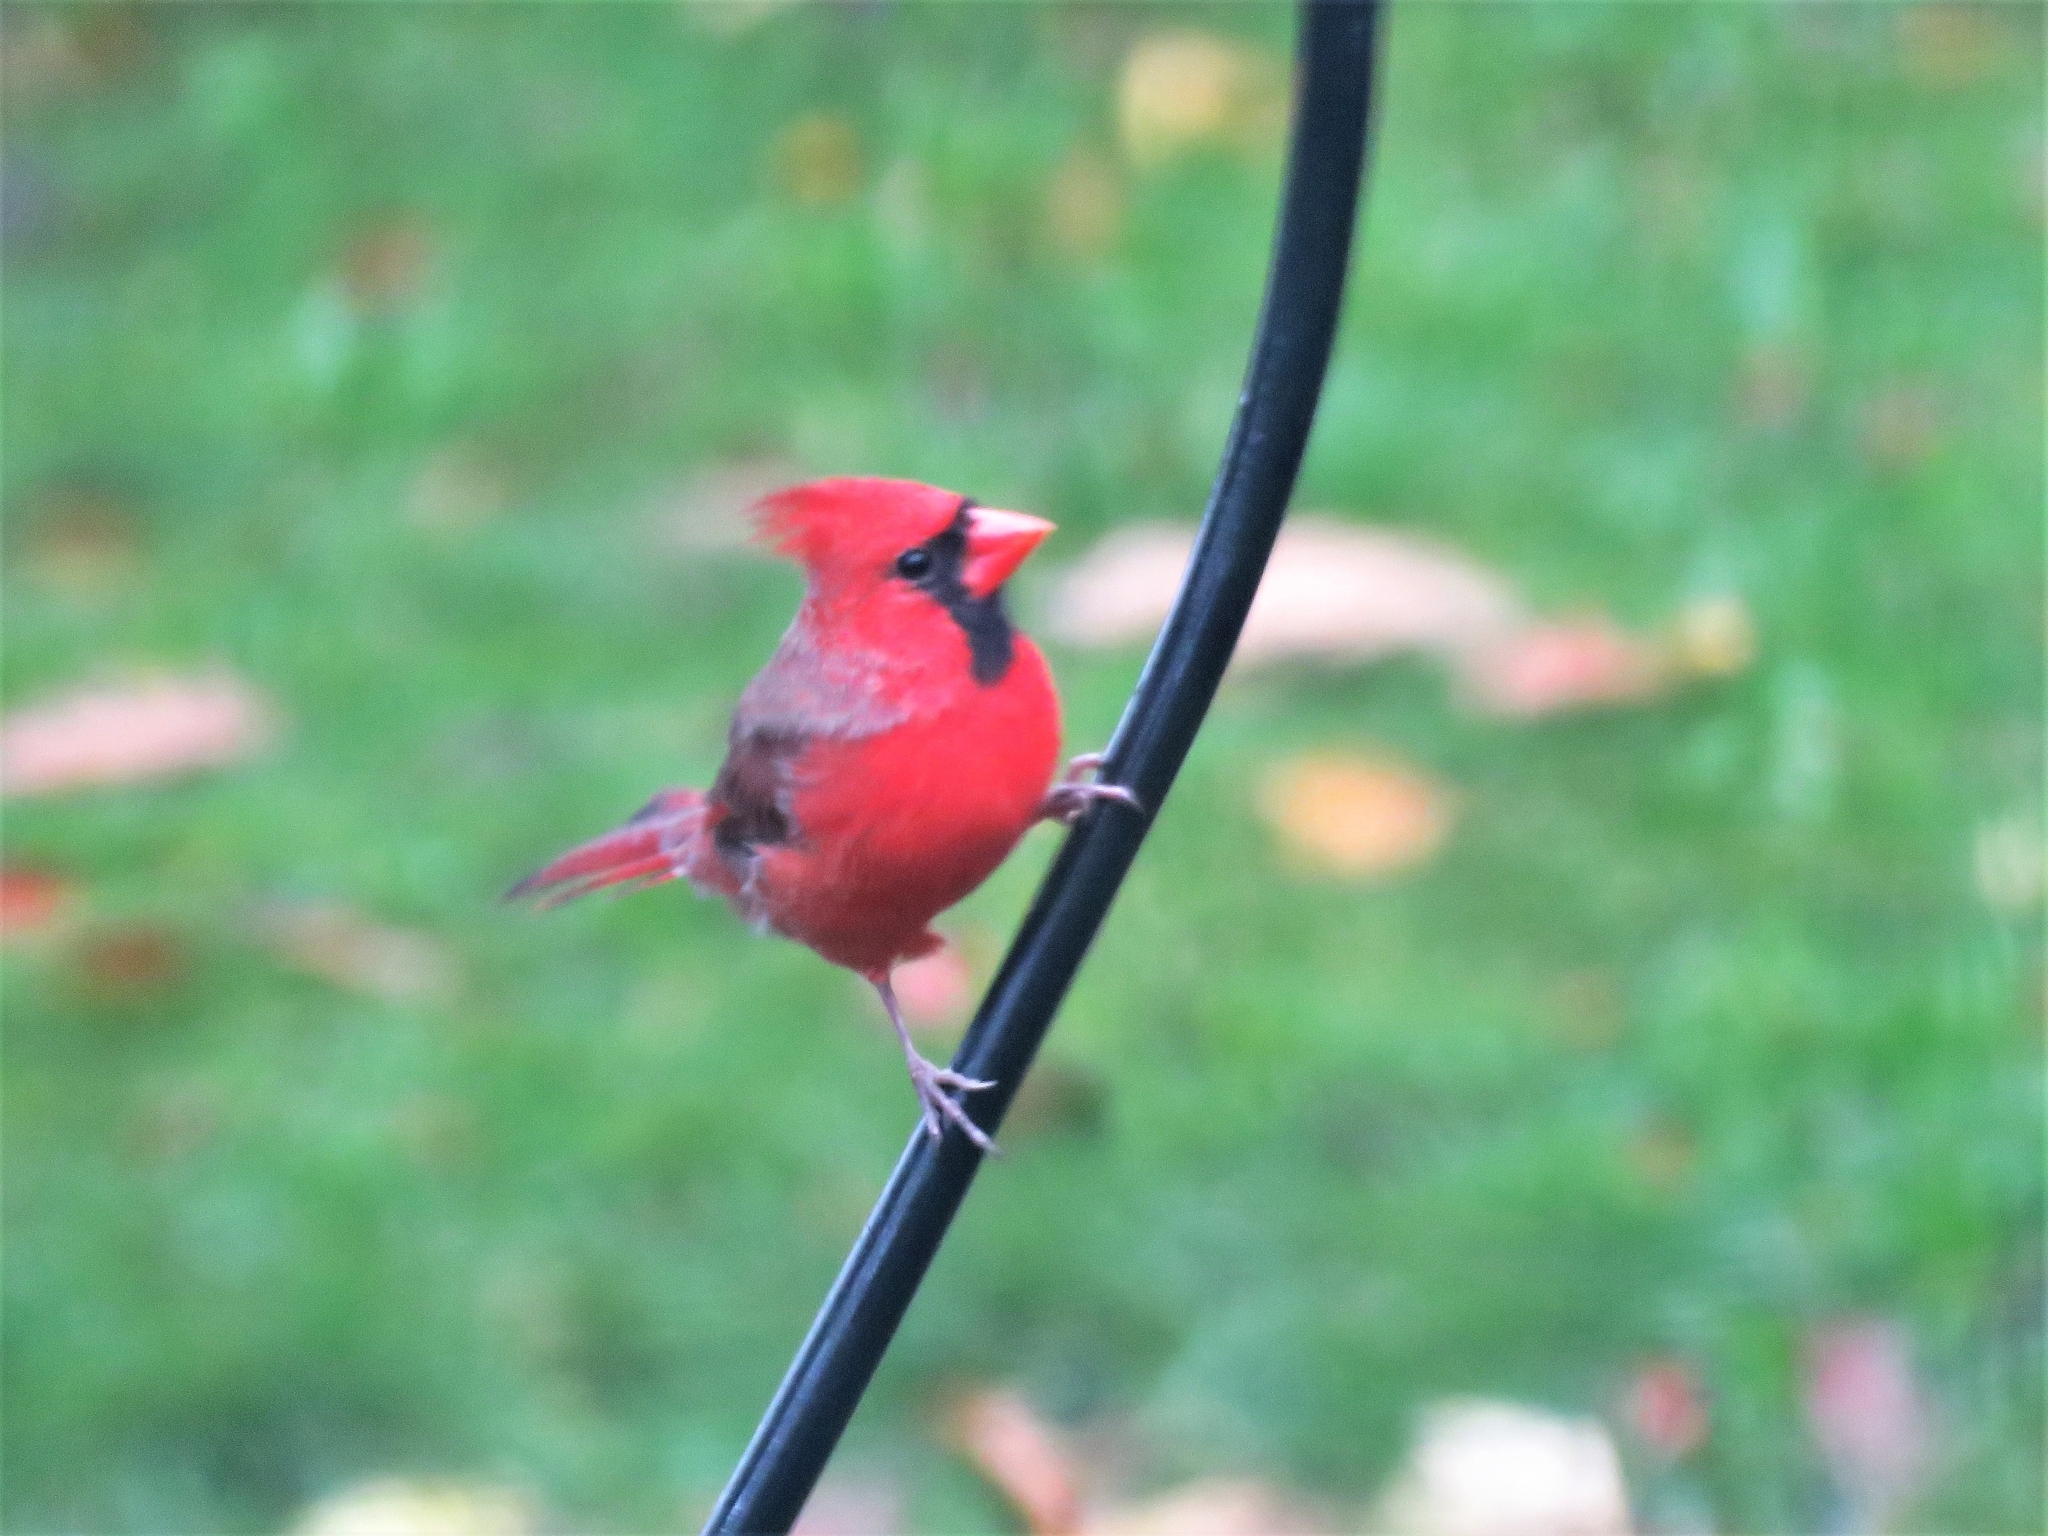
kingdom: Animalia
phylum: Chordata
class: Aves
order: Passeriformes
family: Cardinalidae
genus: Cardinalis
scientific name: Cardinalis cardinalis
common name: Northern cardinal
